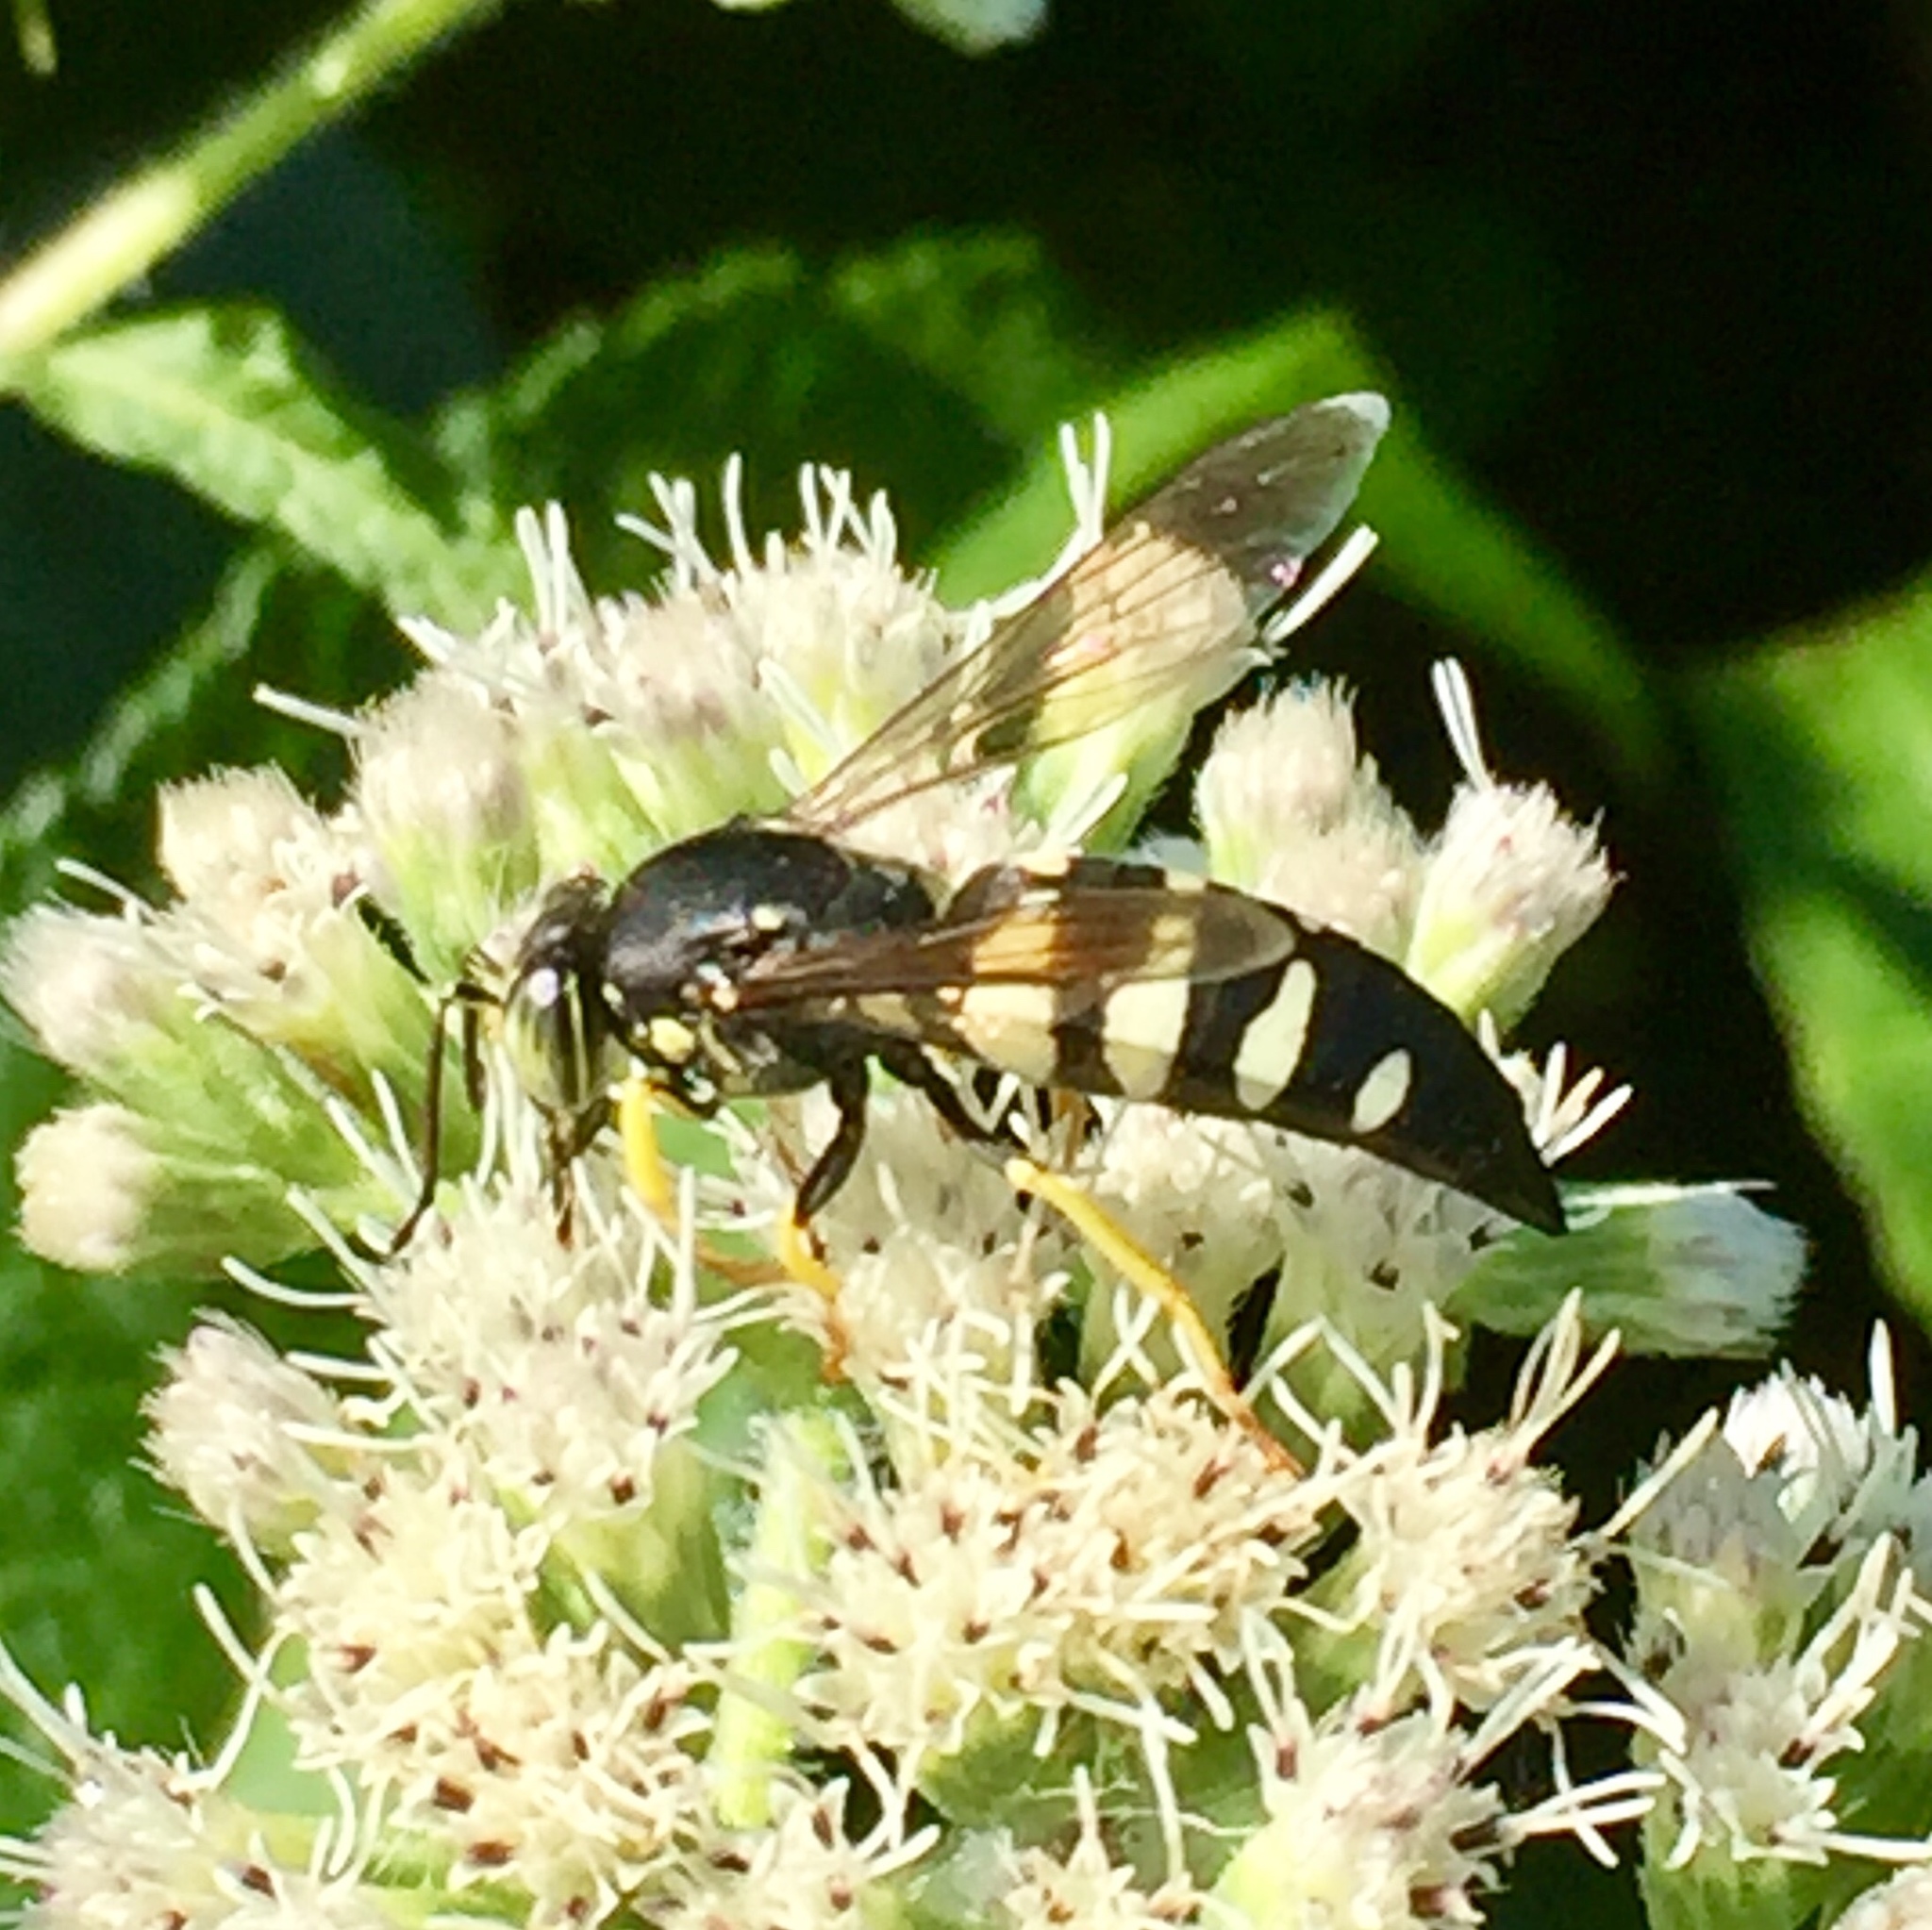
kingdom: Animalia
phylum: Arthropoda
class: Insecta
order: Hymenoptera
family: Crabronidae
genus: Bicyrtes
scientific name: Bicyrtes quadrifasciatus
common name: Four-banded stink bug hunter wasp
